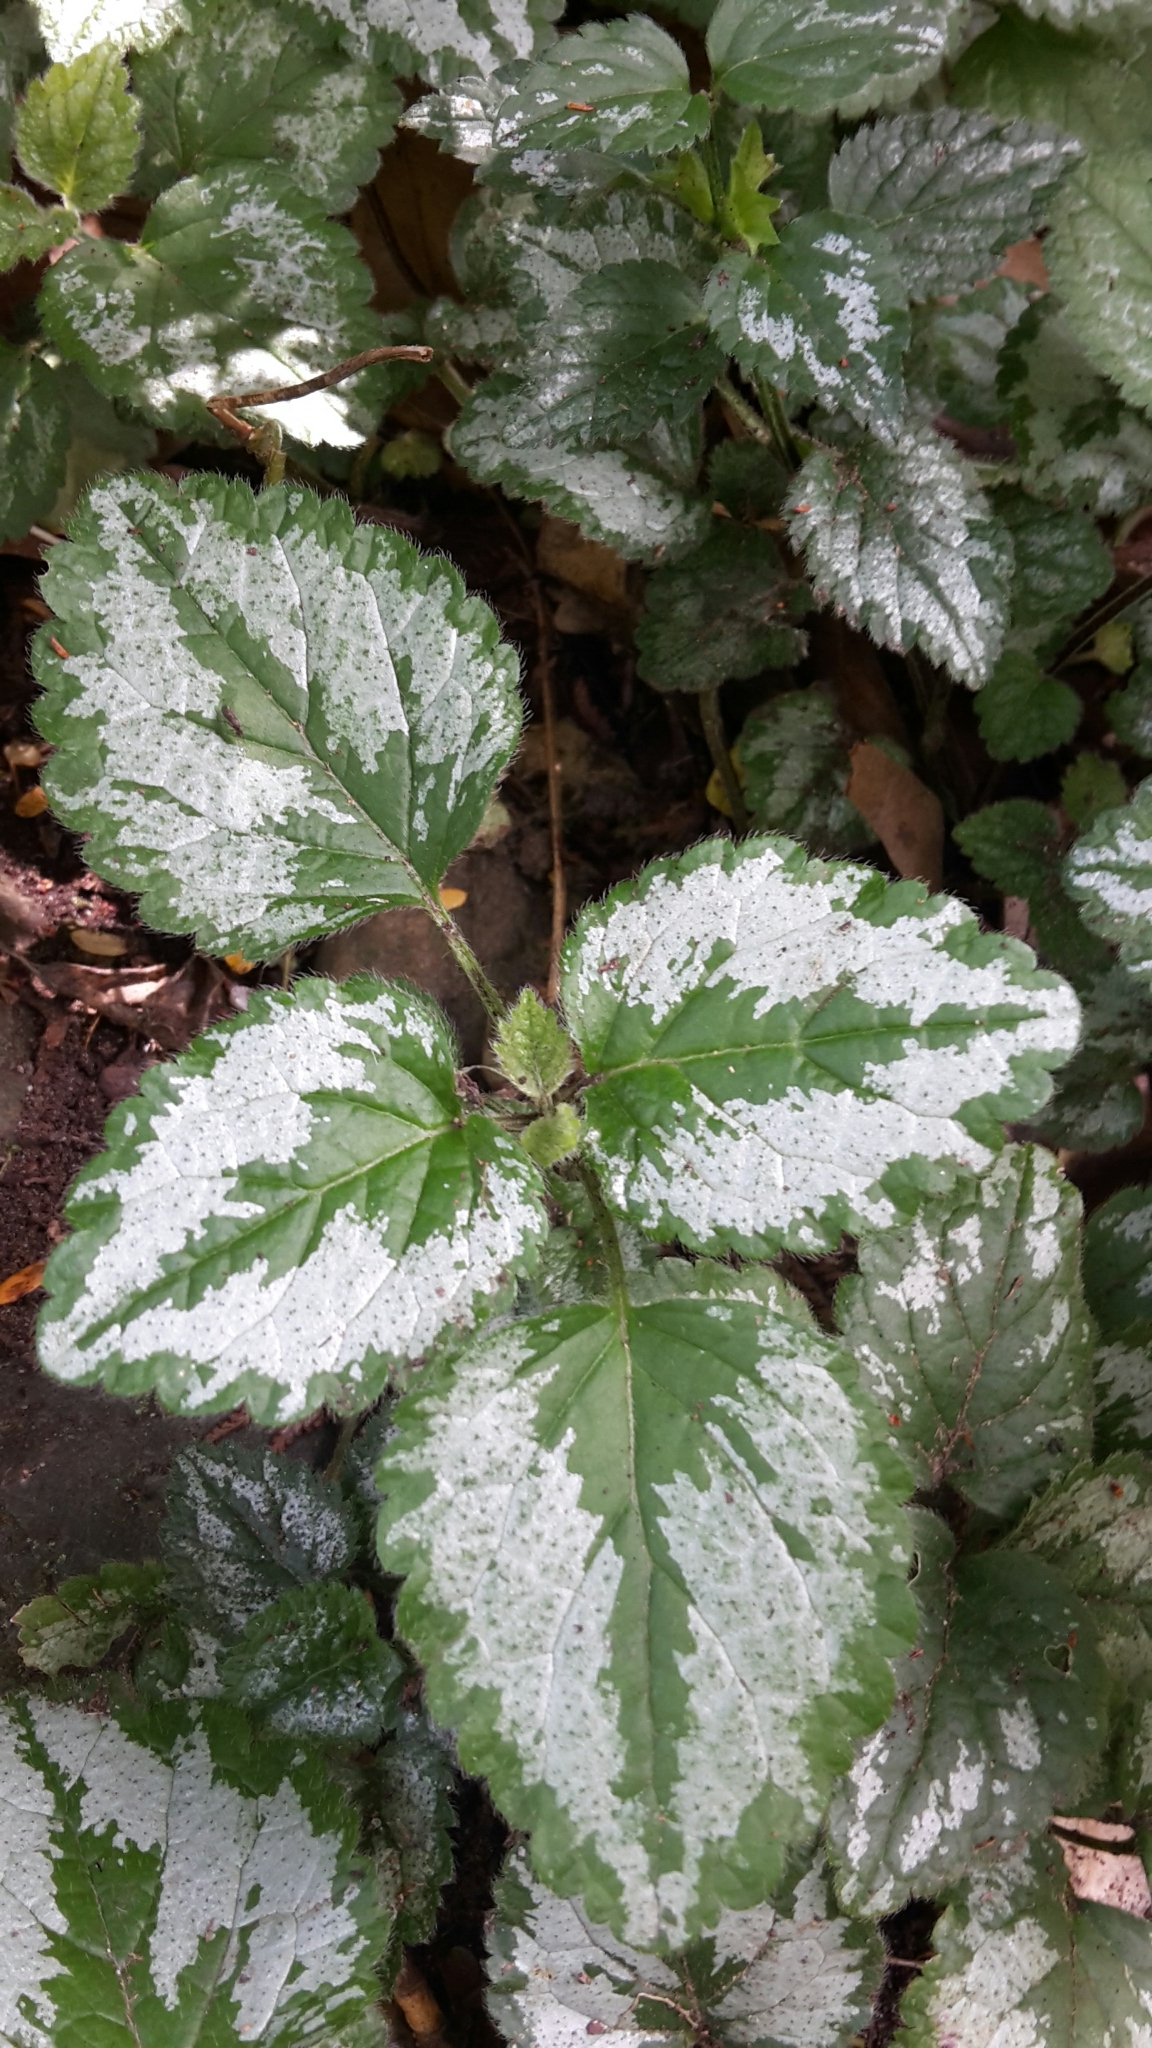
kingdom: Plantae
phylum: Tracheophyta
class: Magnoliopsida
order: Lamiales
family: Lamiaceae
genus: Lamium
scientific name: Lamium galeobdolon
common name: Yellow archangel
